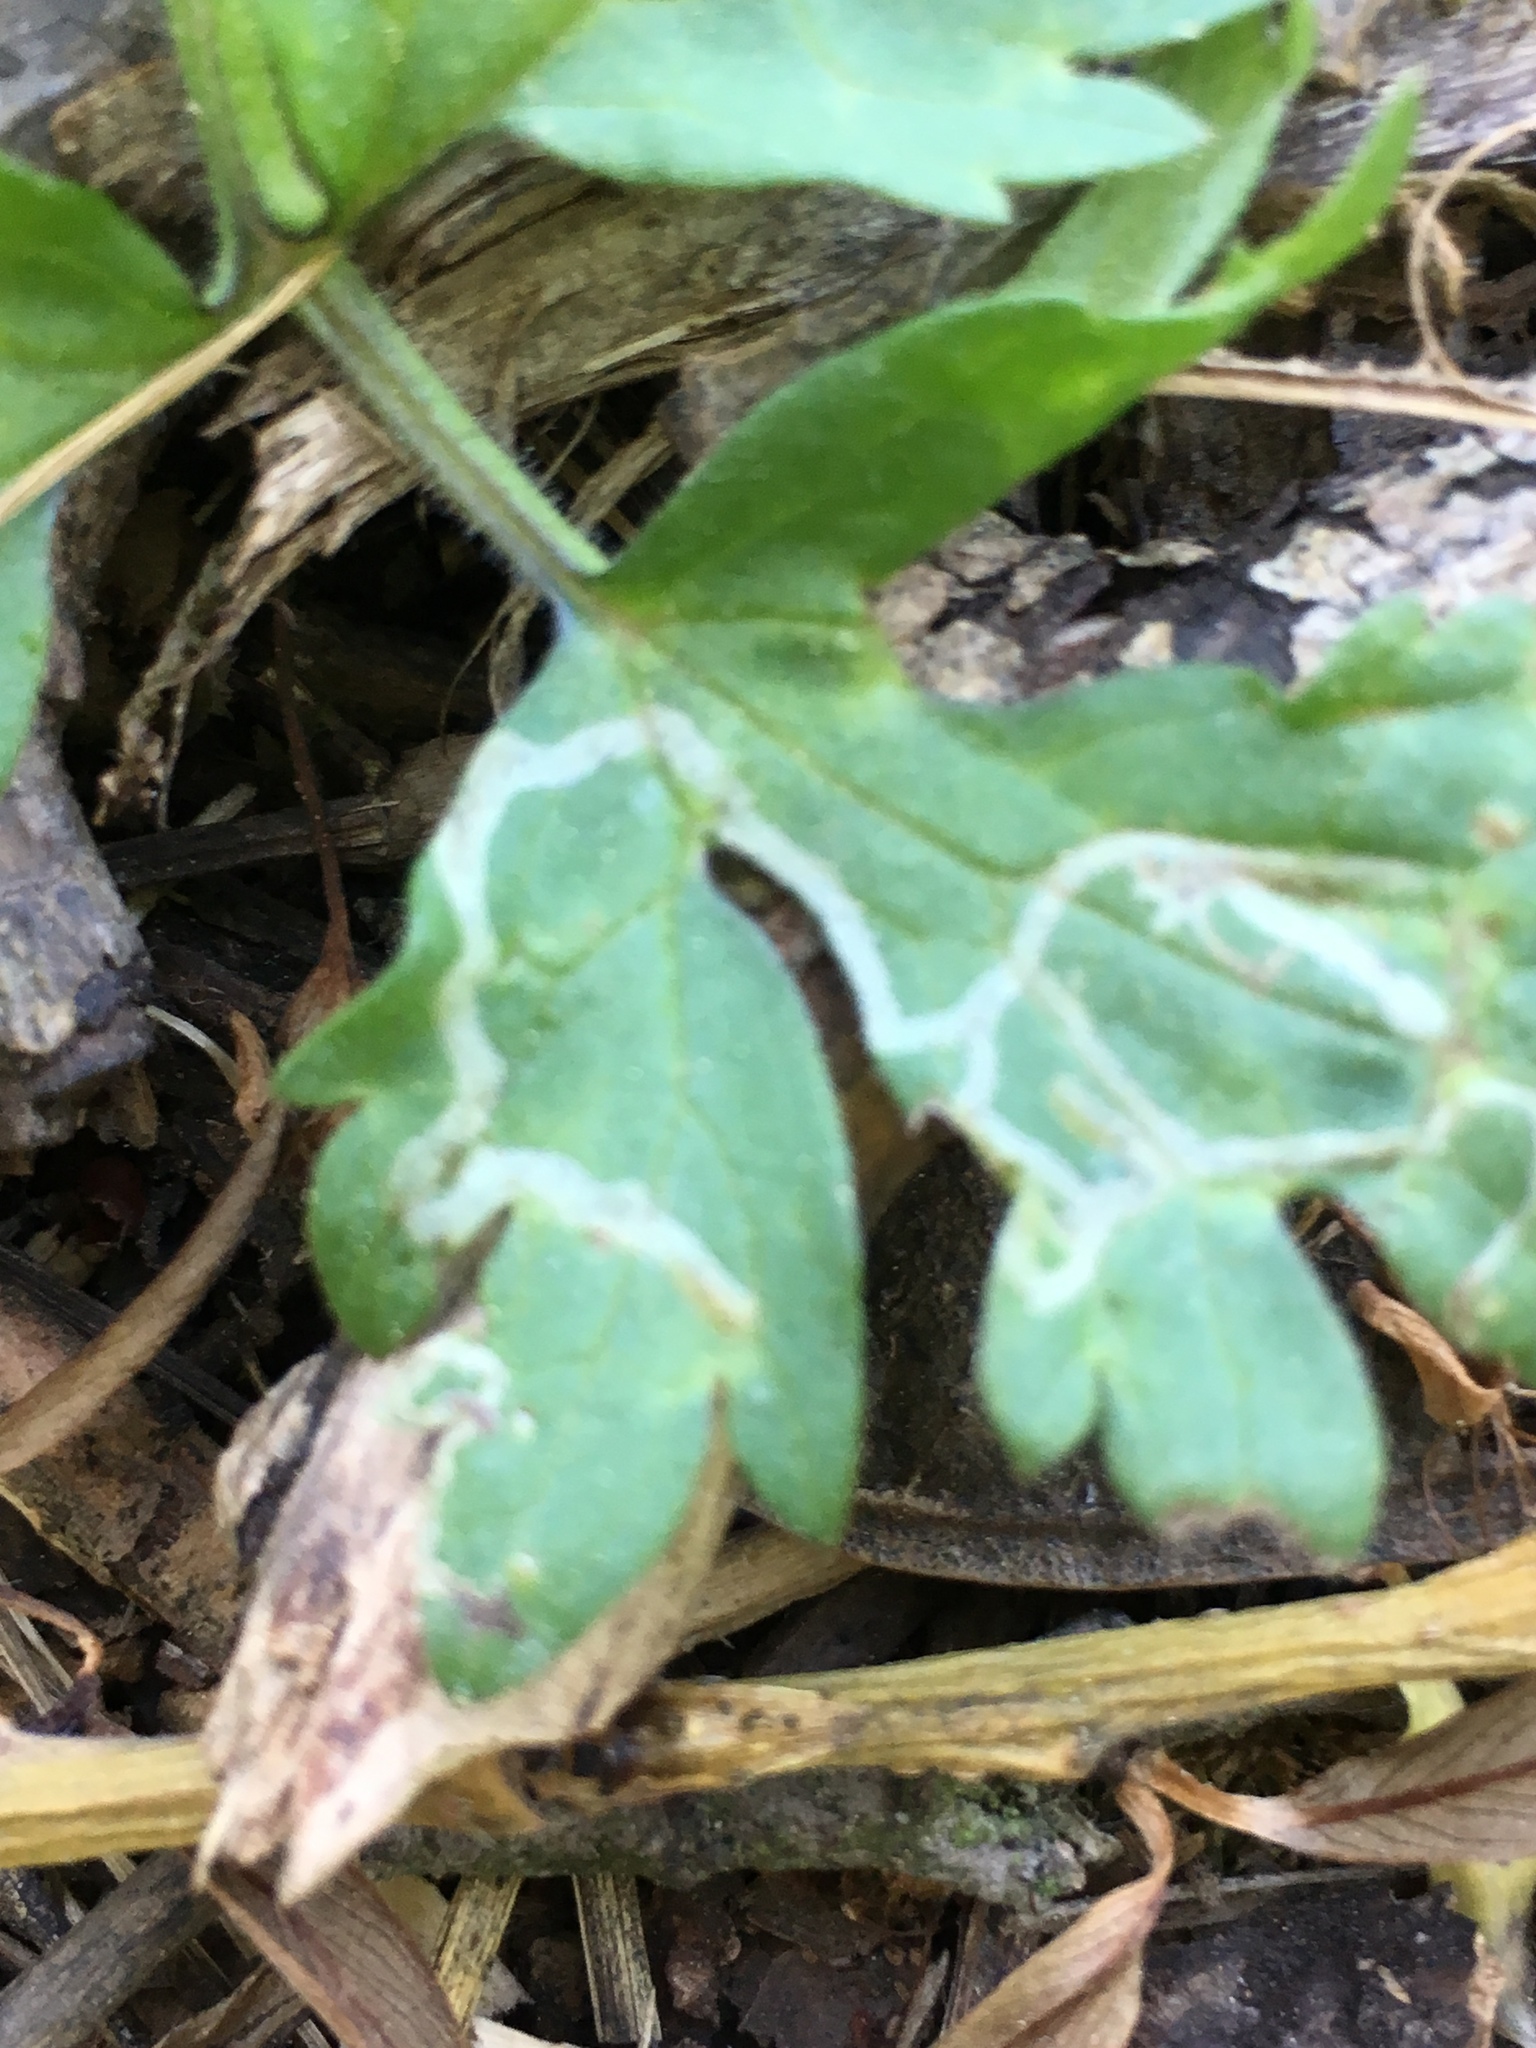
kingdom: Animalia
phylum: Arthropoda
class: Insecta
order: Diptera
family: Agromyzidae
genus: Phytomyza
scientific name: Phytomyza ranunculi
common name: Leaf-miner fly
